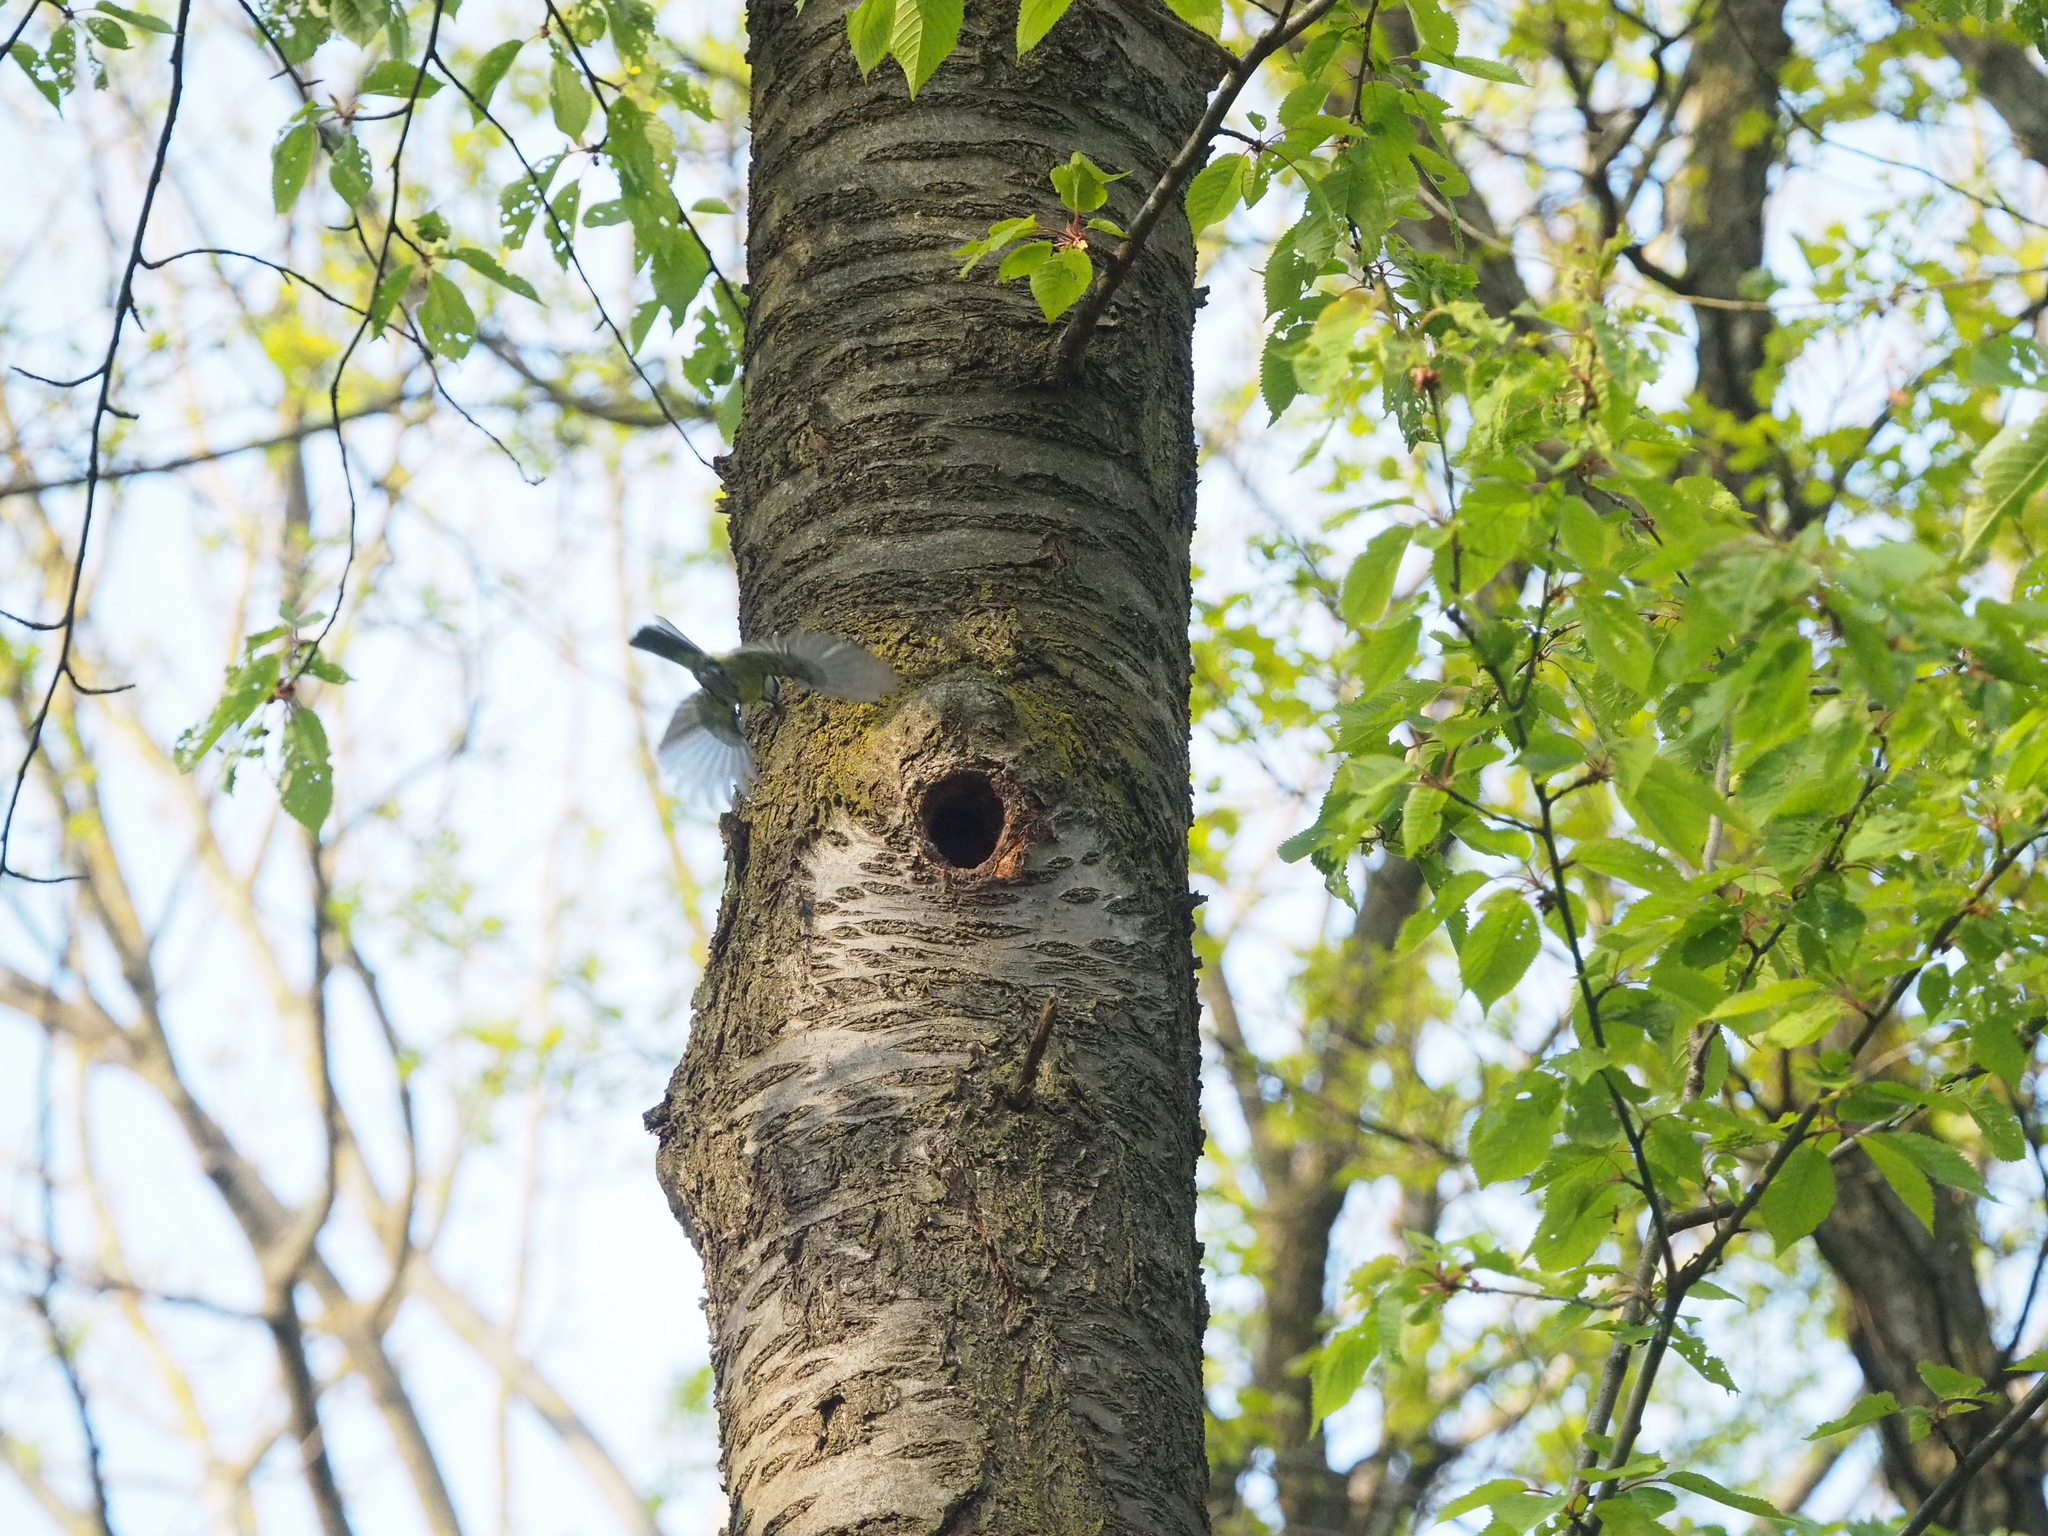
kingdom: Animalia
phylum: Chordata
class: Aves
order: Passeriformes
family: Paridae
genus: Cyanistes
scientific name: Cyanistes caeruleus
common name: Eurasian blue tit
